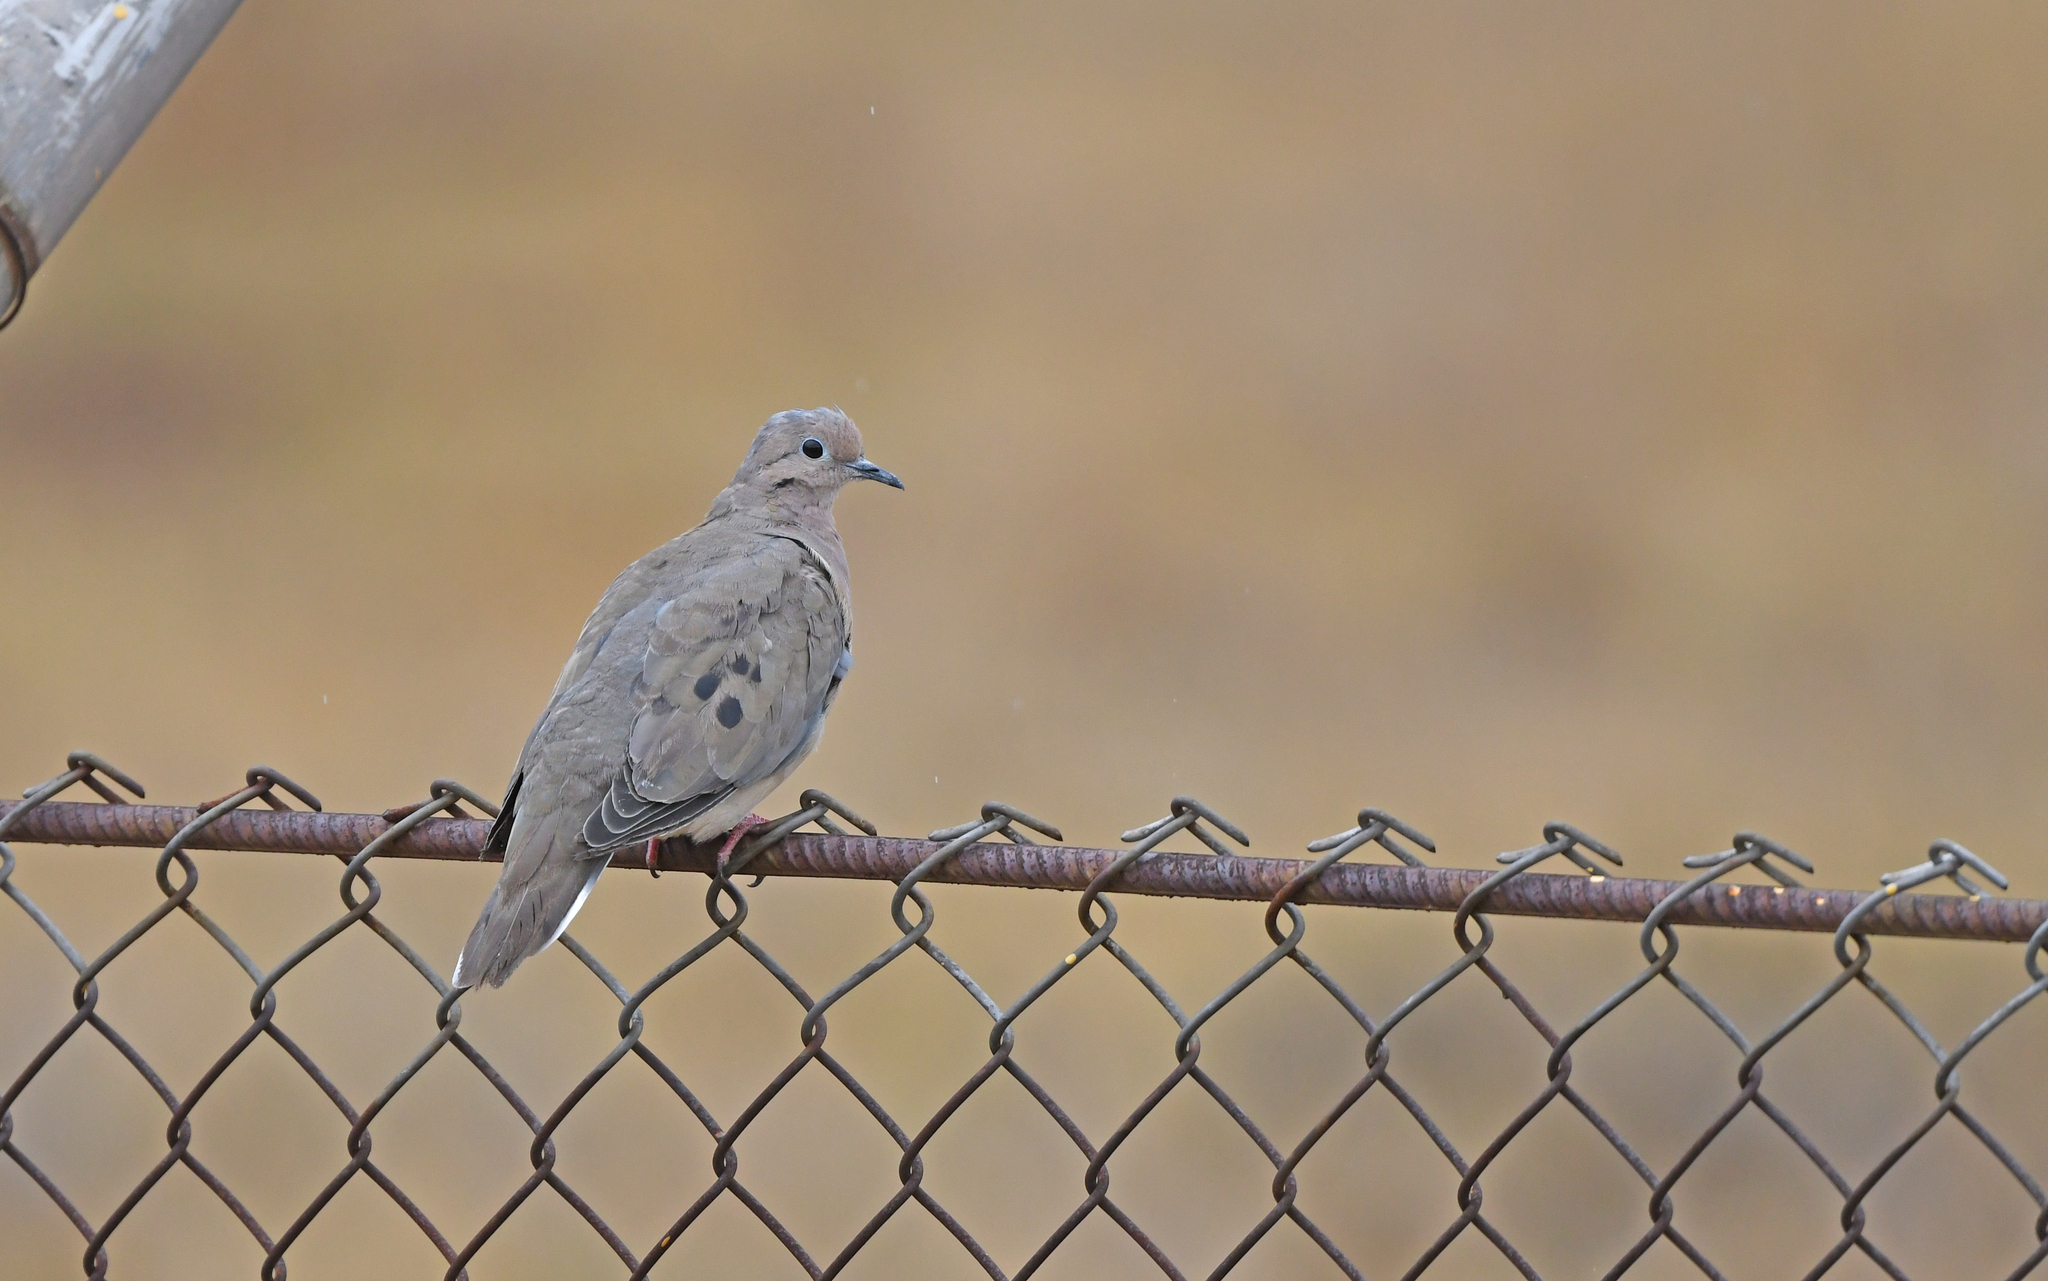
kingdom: Animalia
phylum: Chordata
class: Aves
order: Columbiformes
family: Columbidae
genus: Zenaida
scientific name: Zenaida auriculata
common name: Eared dove
